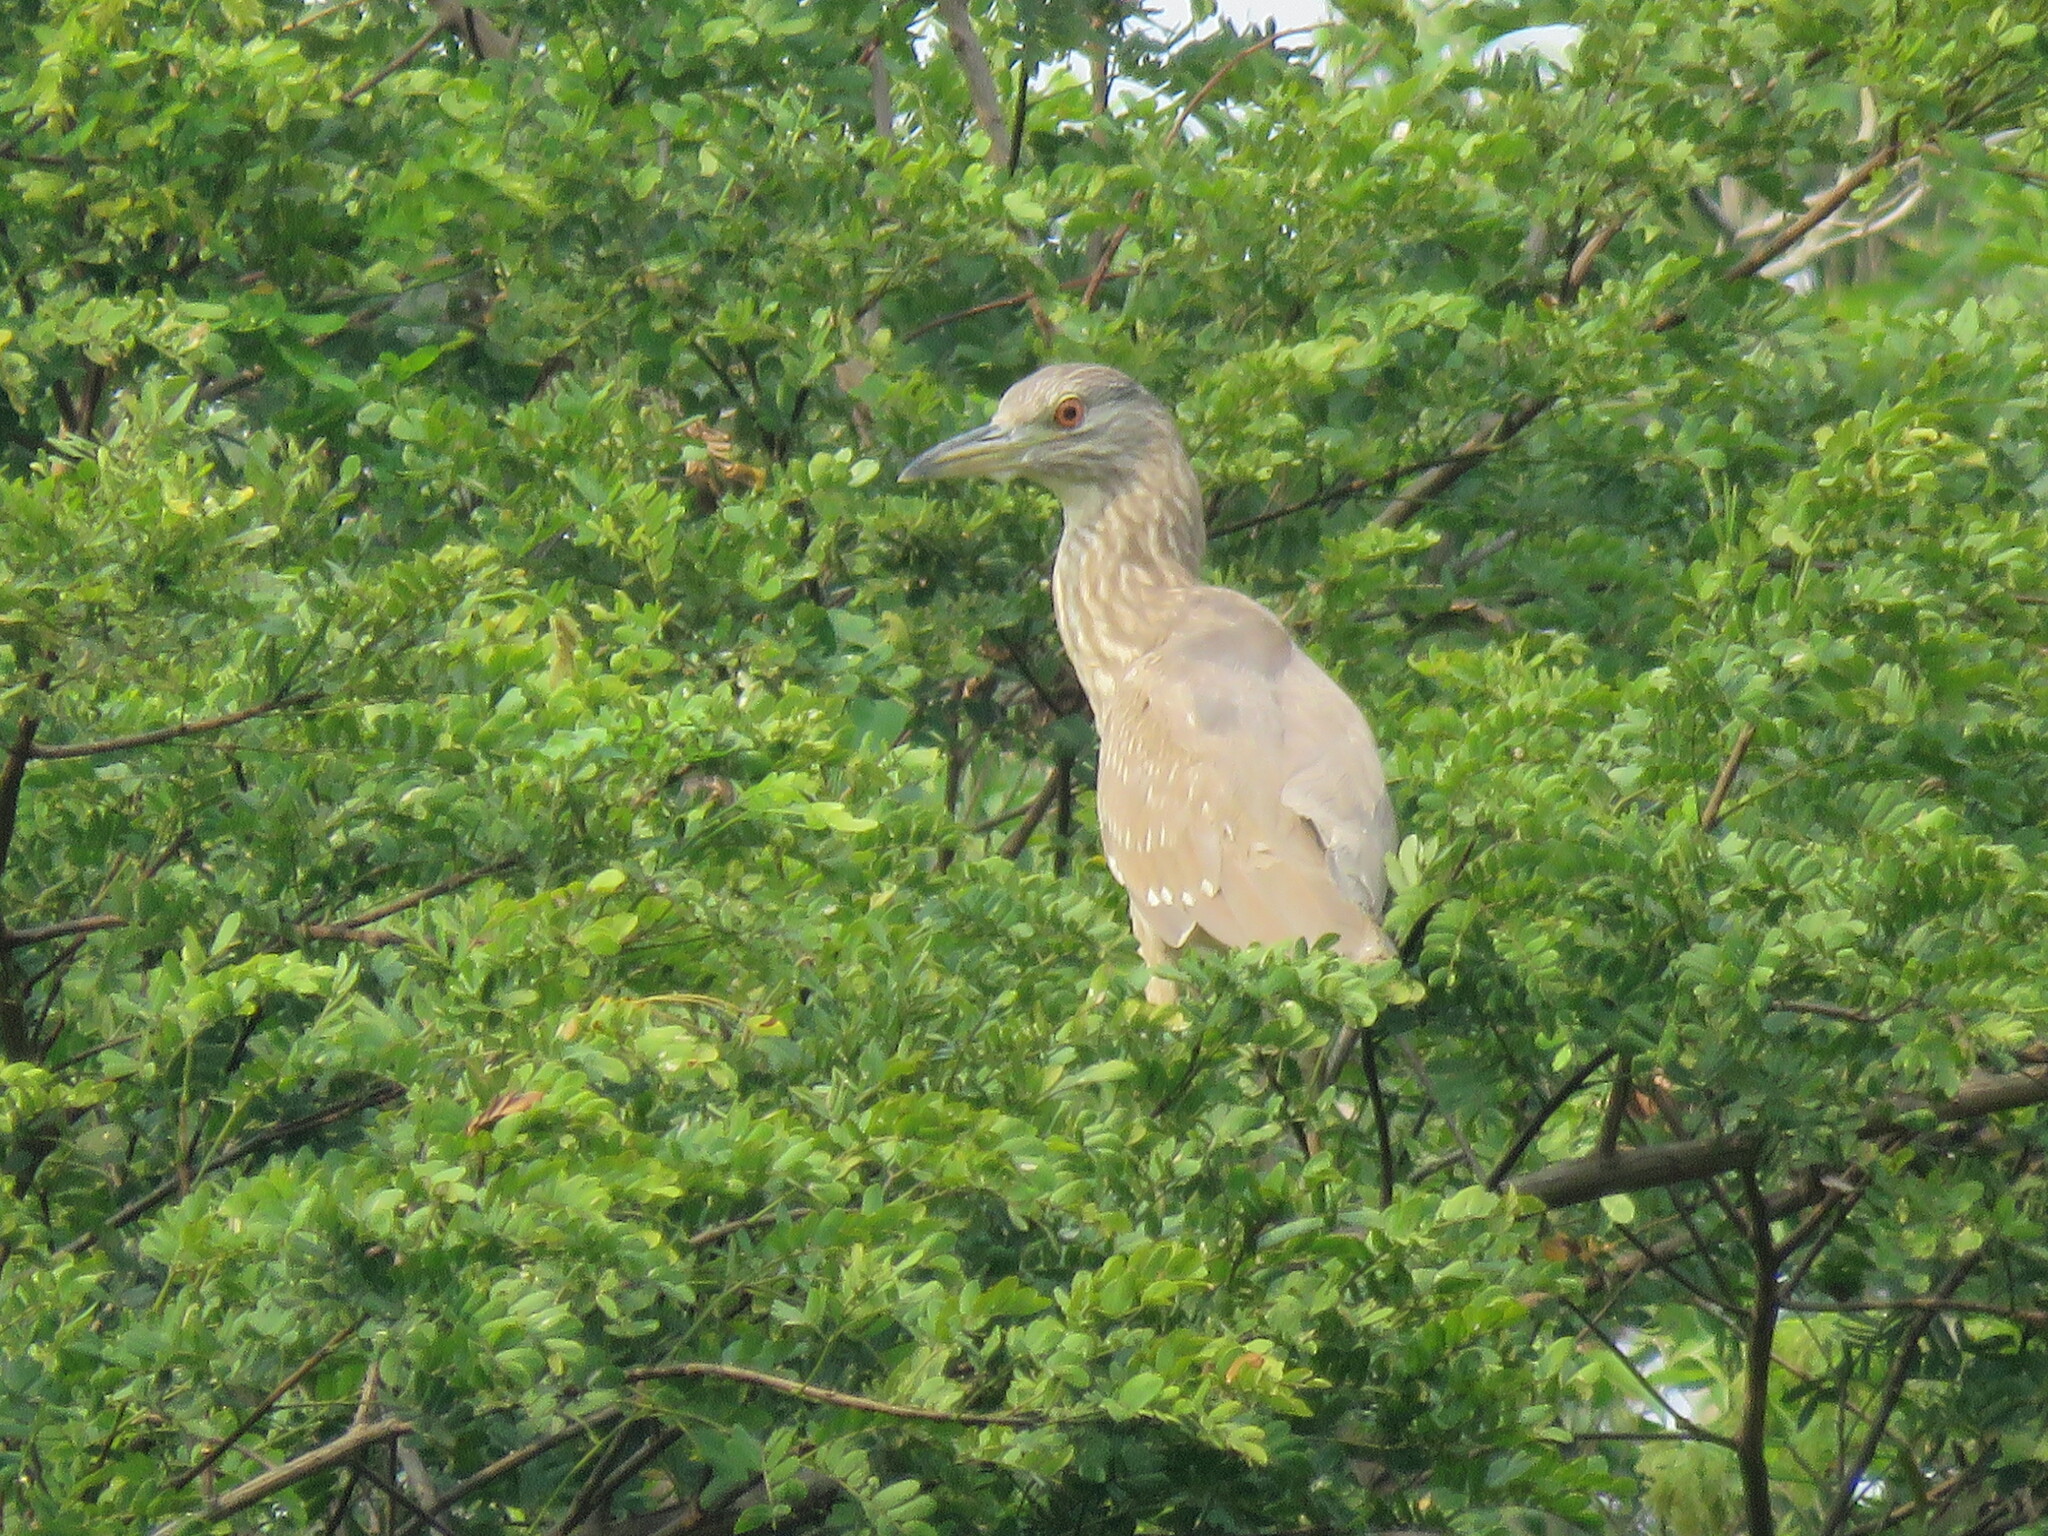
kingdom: Animalia
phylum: Chordata
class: Aves
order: Pelecaniformes
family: Ardeidae
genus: Nycticorax
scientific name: Nycticorax nycticorax
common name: Black-crowned night heron
